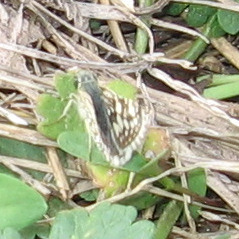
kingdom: Animalia
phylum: Arthropoda
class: Insecta
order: Lepidoptera
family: Hesperiidae
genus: Burnsius
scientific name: Burnsius communis
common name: Common checkered-skipper
